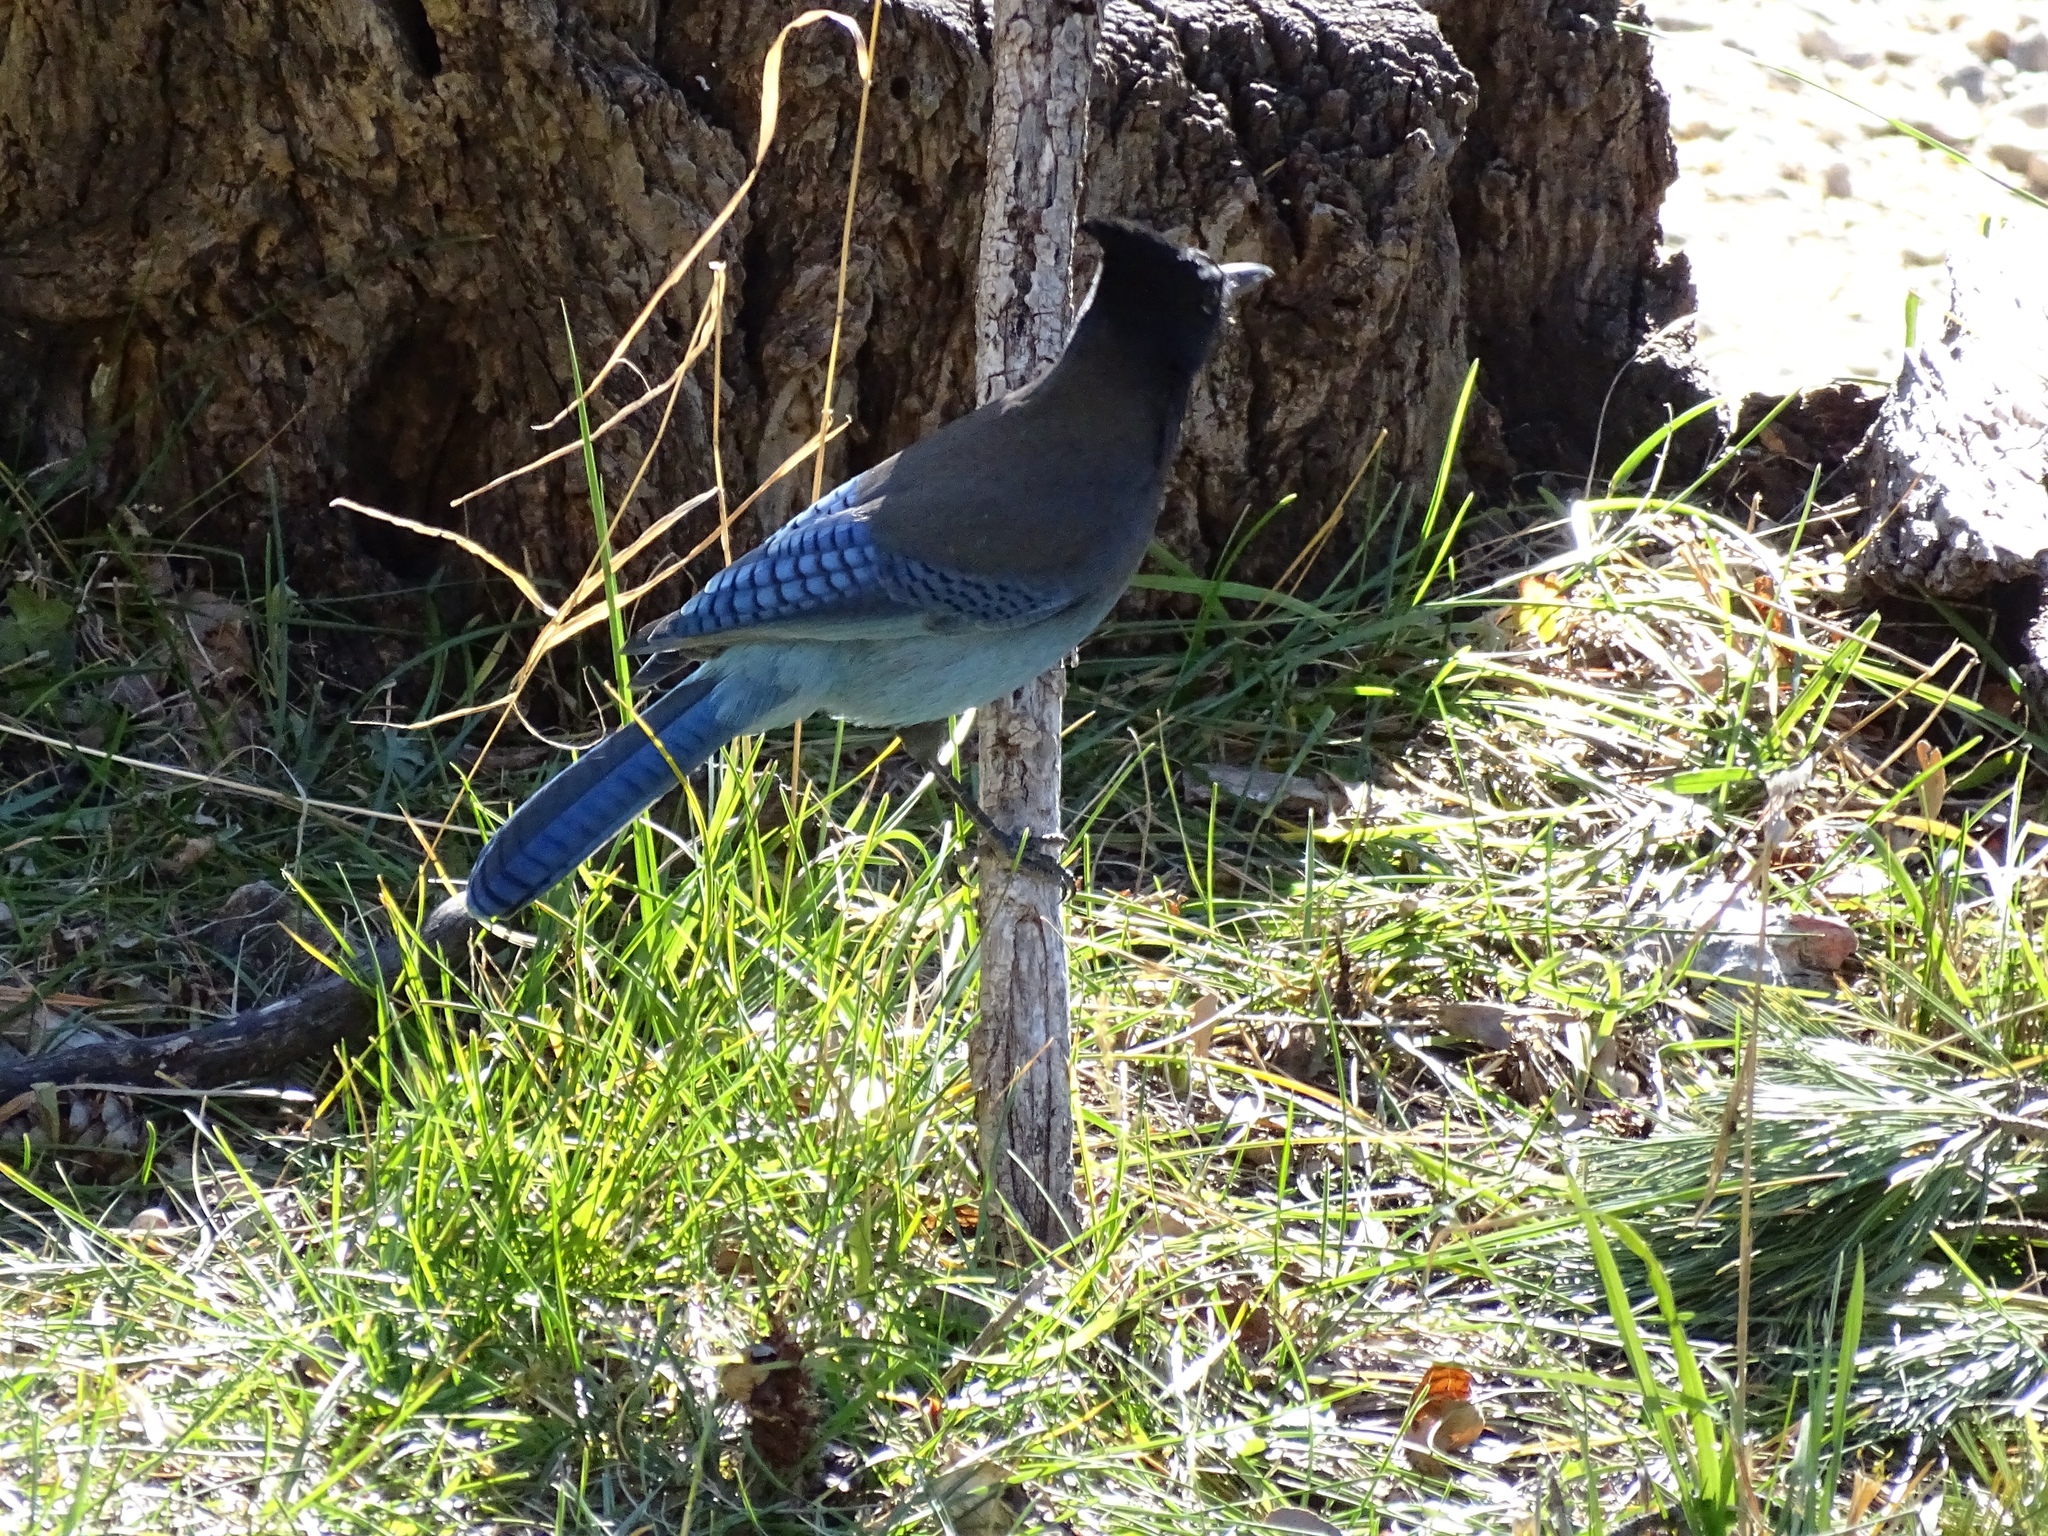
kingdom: Animalia
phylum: Chordata
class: Aves
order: Passeriformes
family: Corvidae
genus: Cyanocitta
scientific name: Cyanocitta stelleri
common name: Steller's jay
